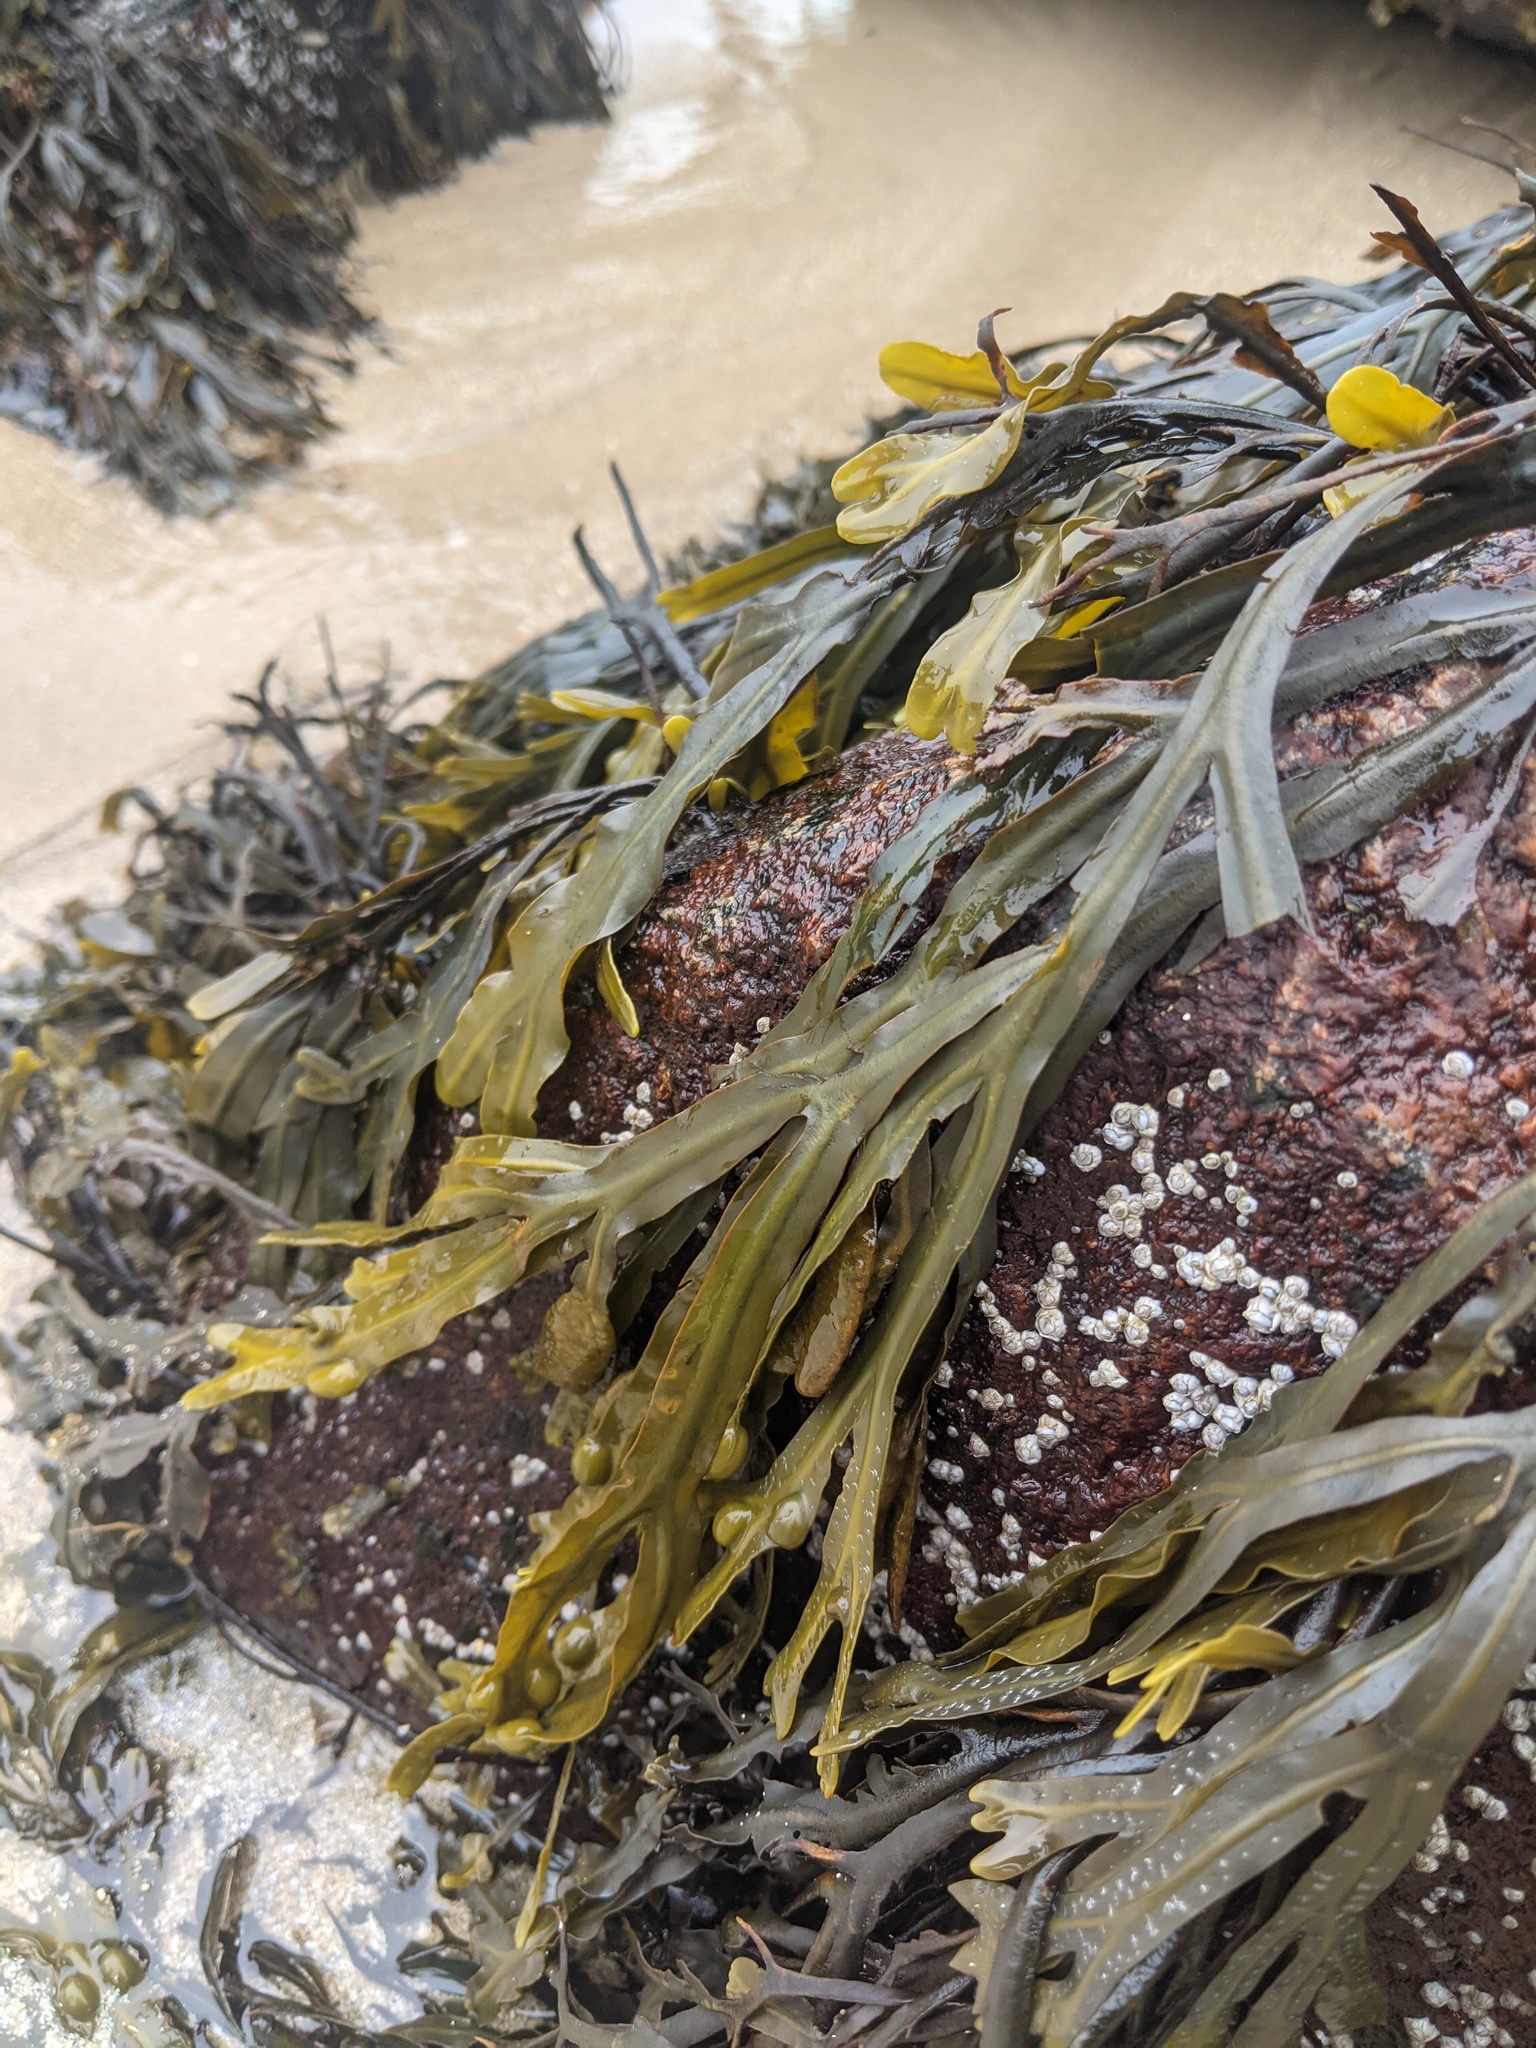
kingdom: Chromista
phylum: Ochrophyta
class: Phaeophyceae
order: Fucales
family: Fucaceae
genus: Fucus
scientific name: Fucus vesiculosus
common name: Bladder wrack
